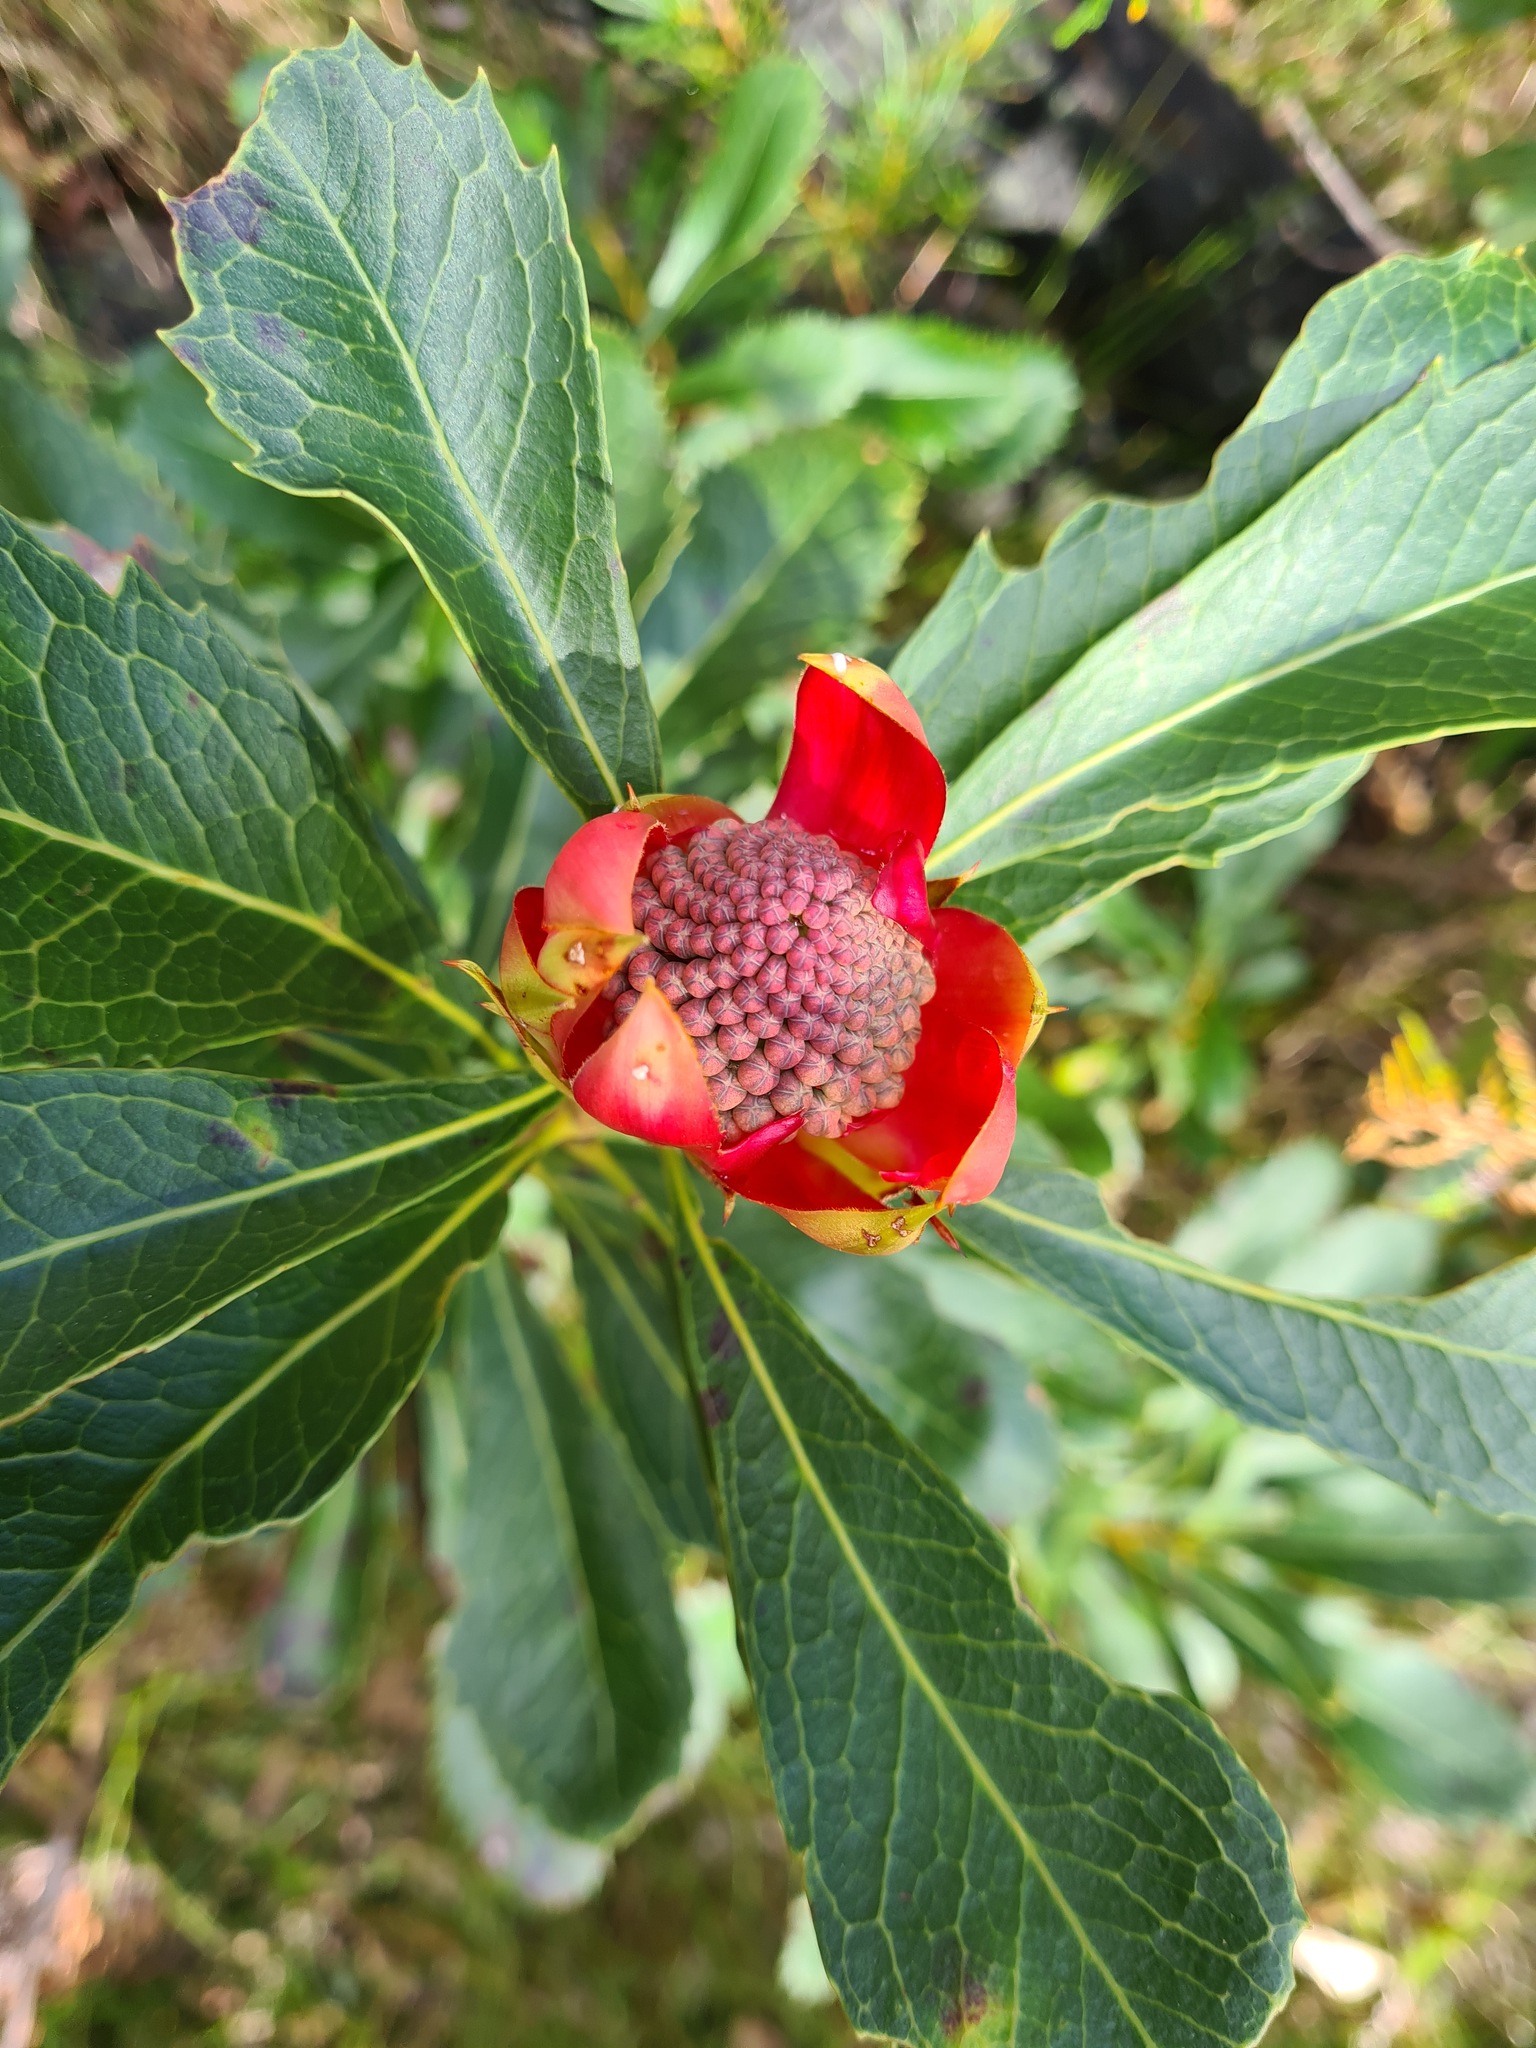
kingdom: Plantae
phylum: Tracheophyta
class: Magnoliopsida
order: Proteales
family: Proteaceae
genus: Telopea
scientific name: Telopea speciosissima
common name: New south wales waratah
